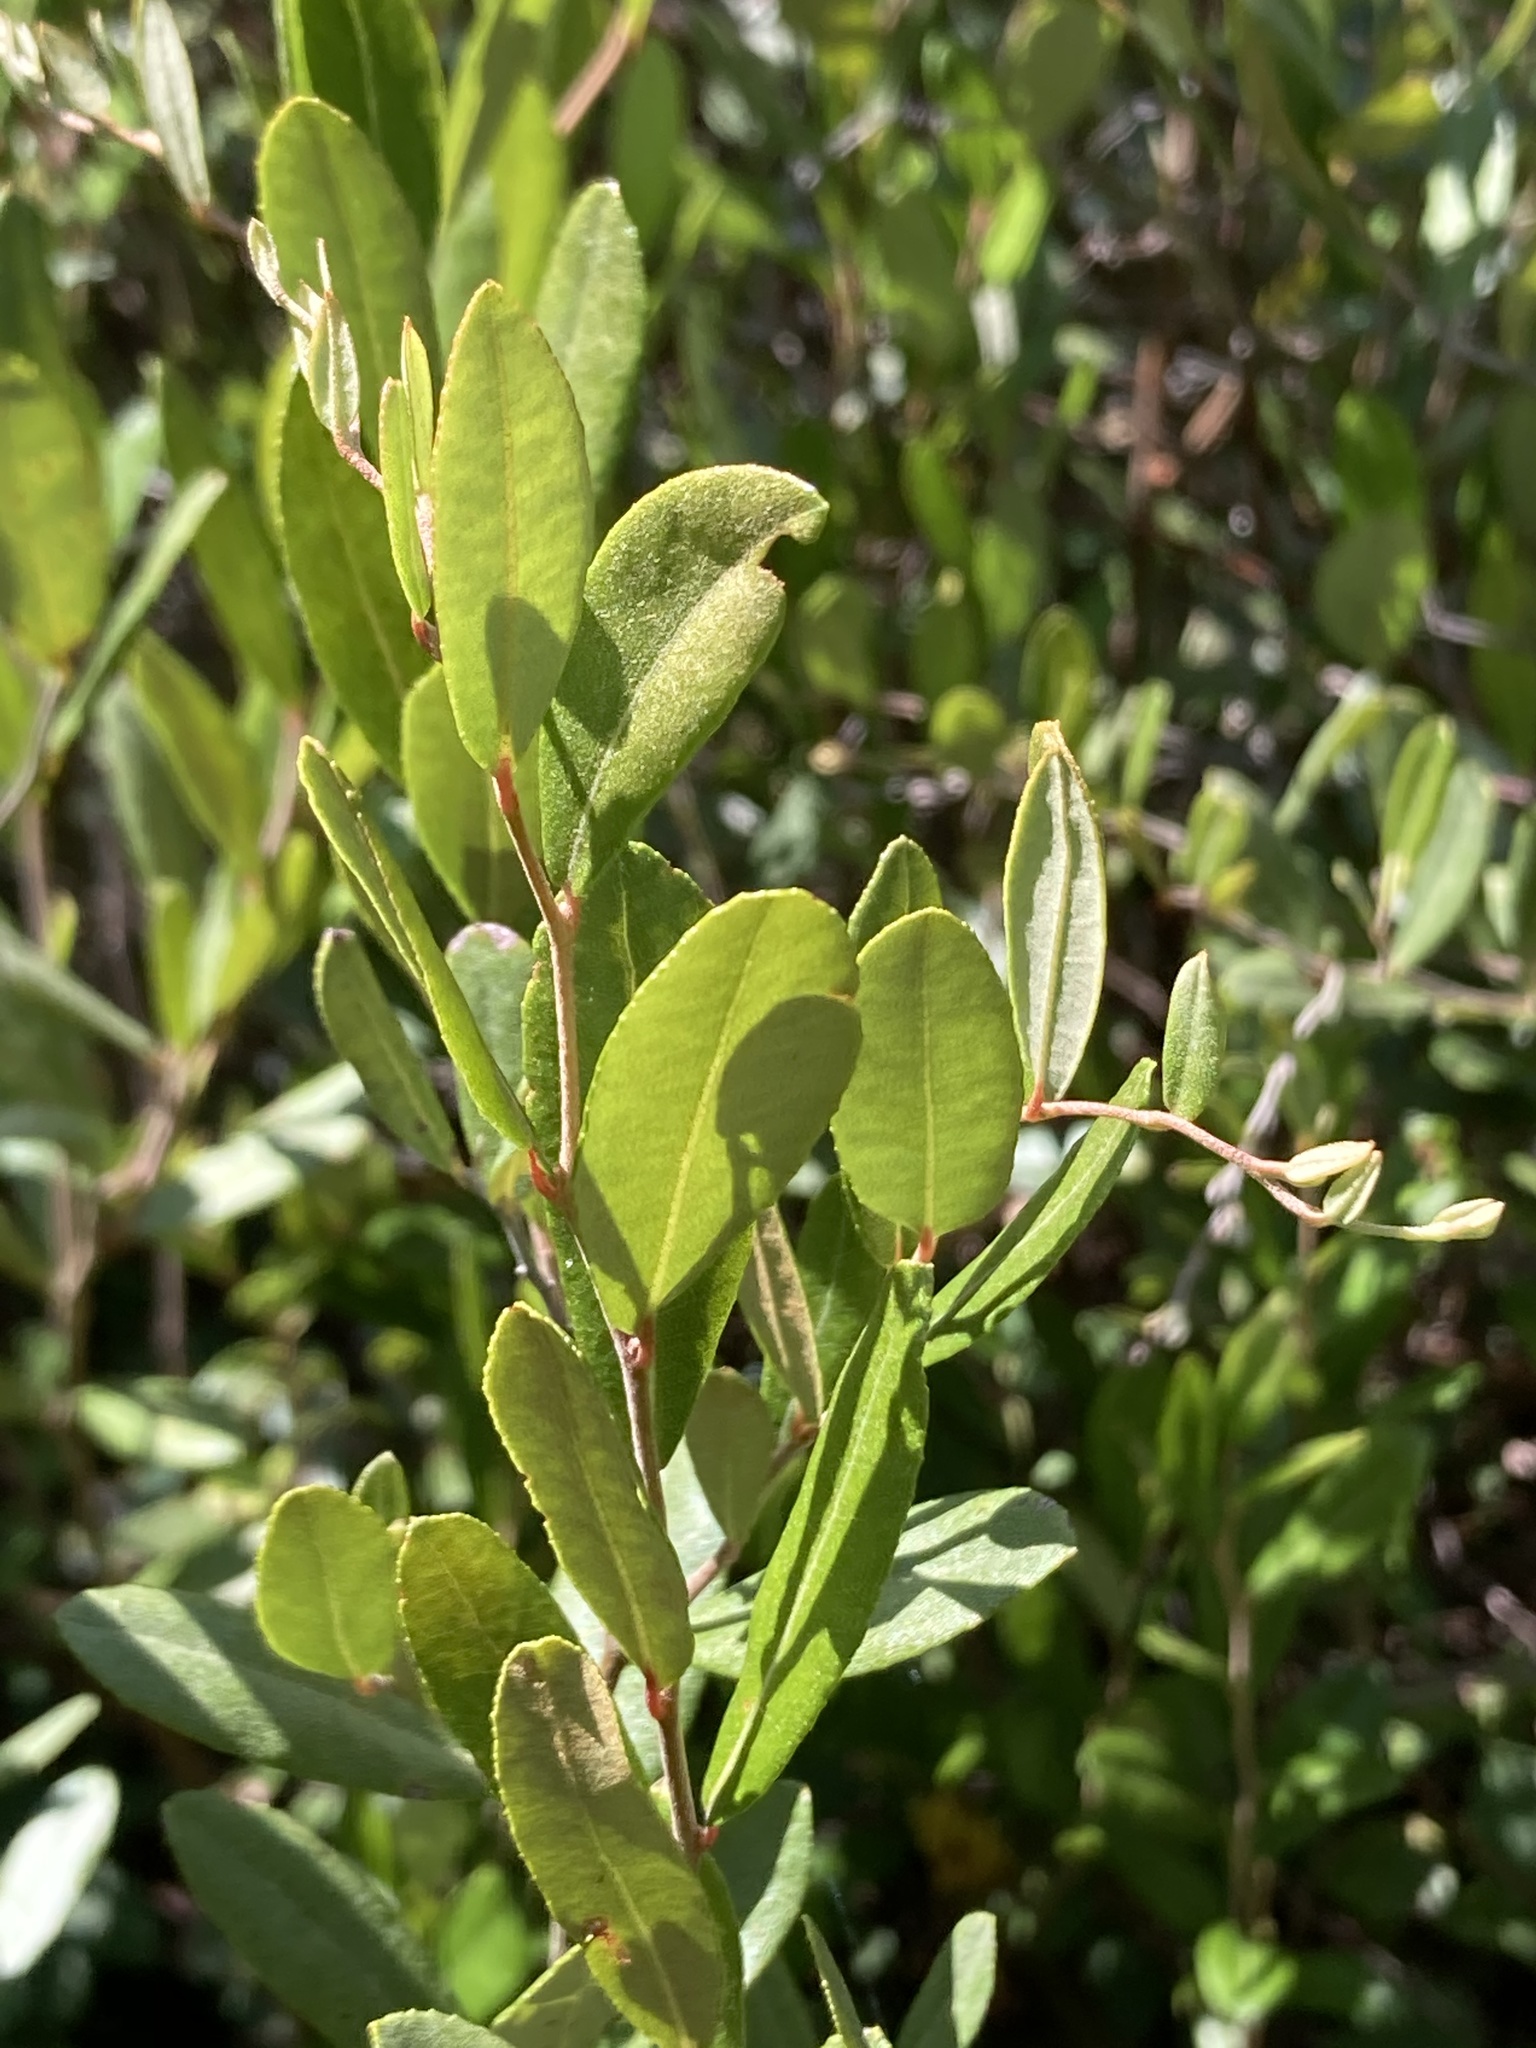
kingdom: Plantae
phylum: Tracheophyta
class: Magnoliopsida
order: Ericales
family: Ericaceae
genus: Chamaedaphne
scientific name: Chamaedaphne calyculata
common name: Leatherleaf
